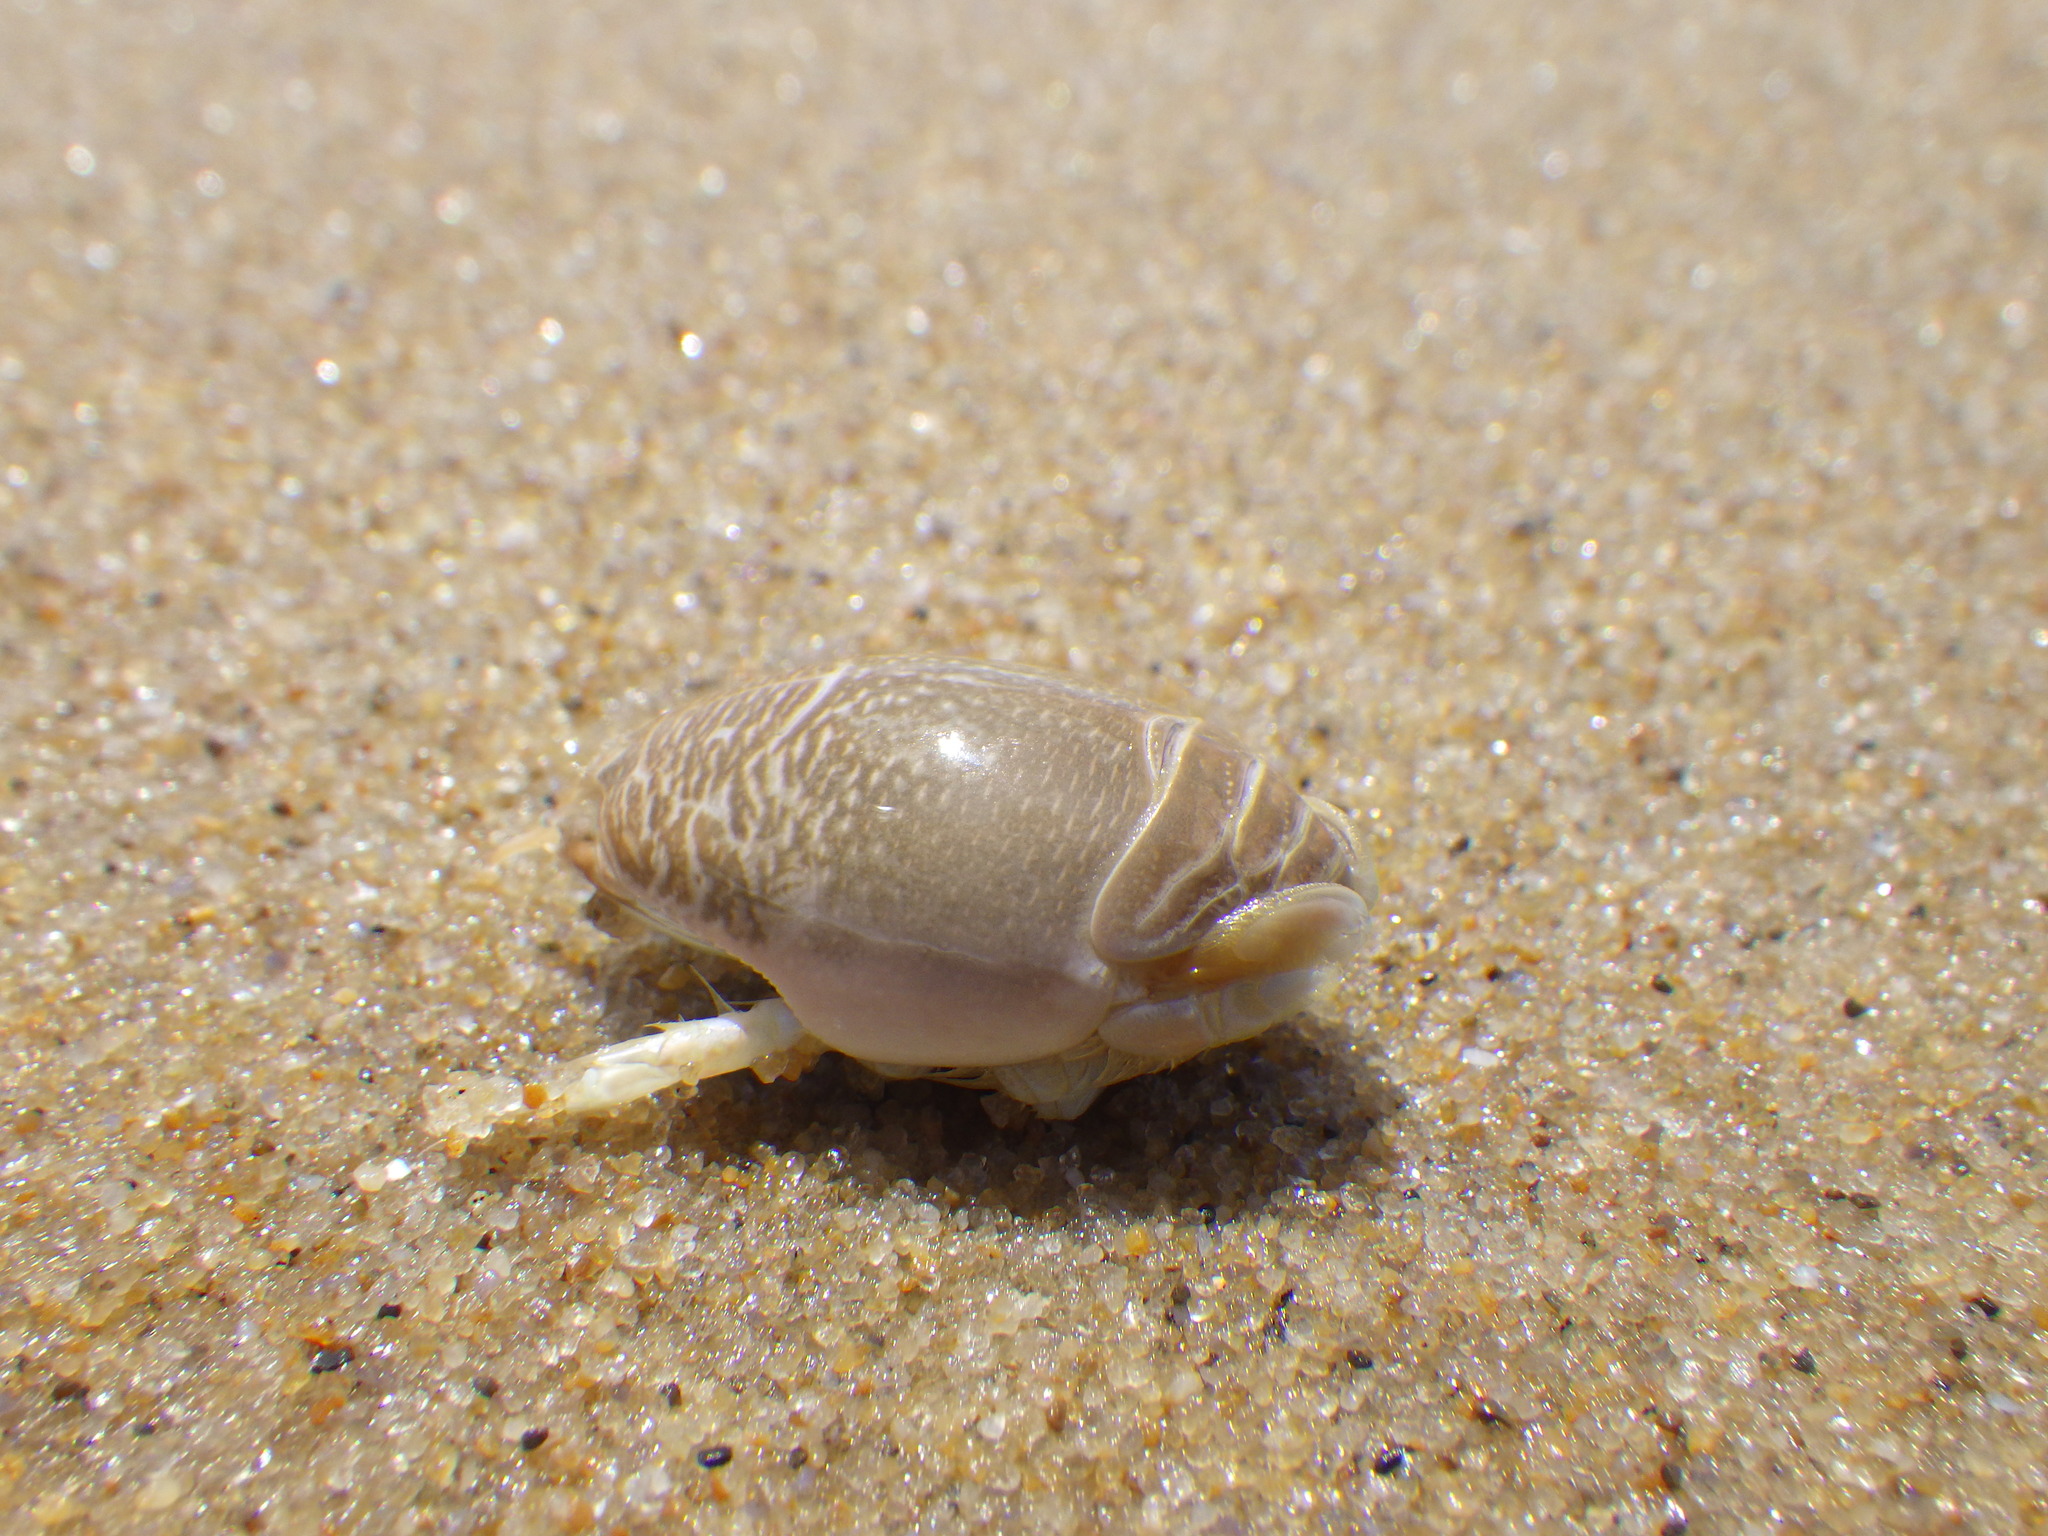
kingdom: Animalia
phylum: Arthropoda
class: Malacostraca
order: Decapoda
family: Hippidae
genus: Emerita
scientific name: Emerita talpoida
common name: Atlantic sand crab
